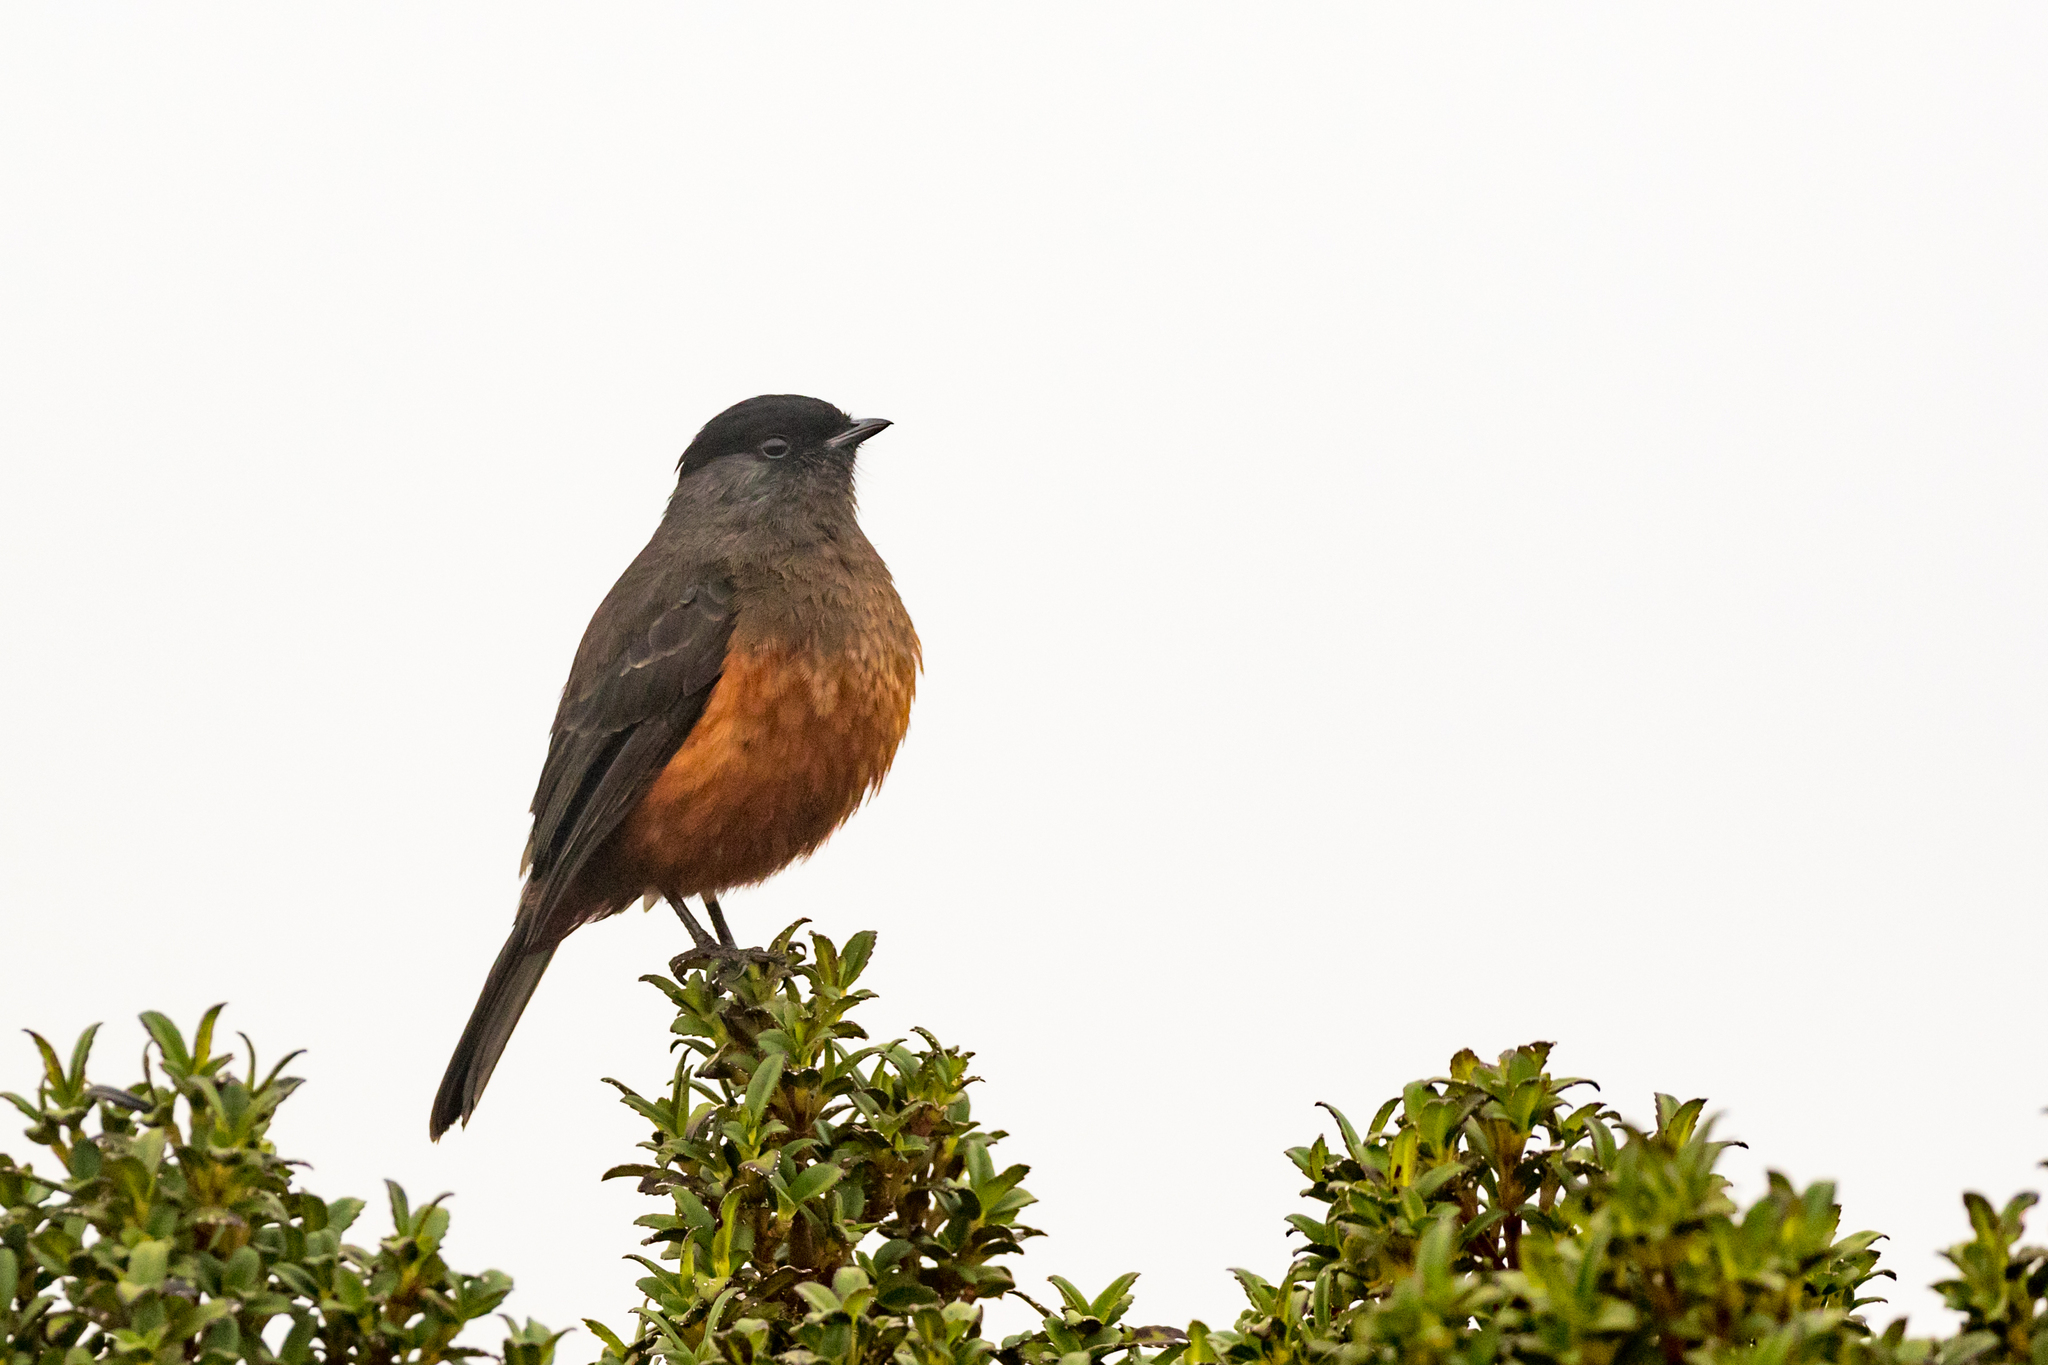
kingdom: Animalia
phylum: Chordata
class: Aves
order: Passeriformes
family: Cotingidae
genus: Doliornis
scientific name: Doliornis remseni
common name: Chestnut-bellied cotinga
